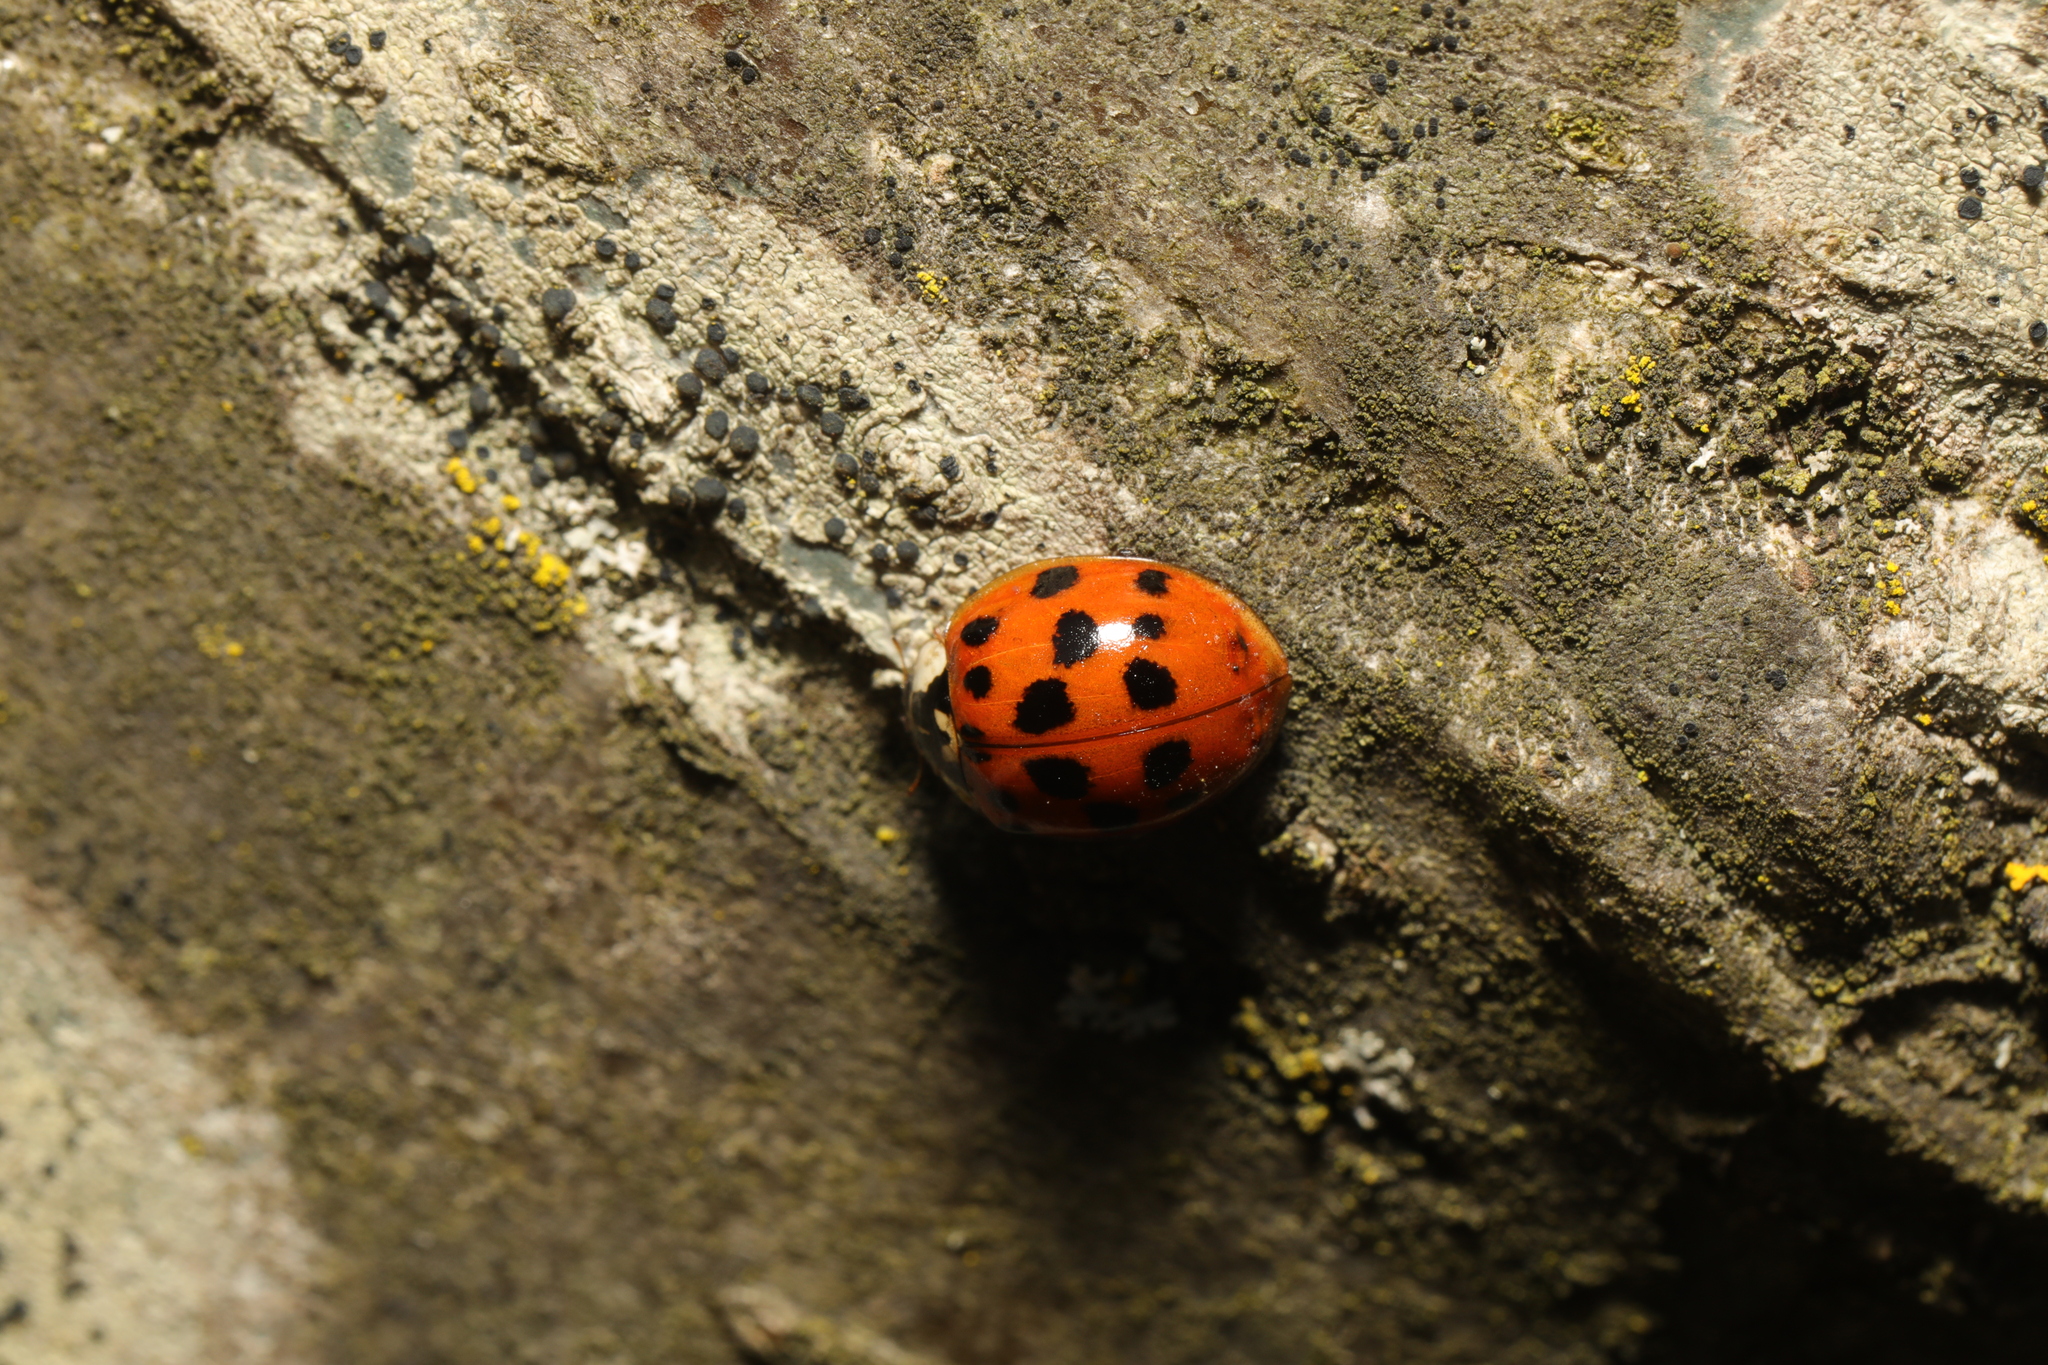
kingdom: Animalia
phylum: Arthropoda
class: Insecta
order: Coleoptera
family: Coccinellidae
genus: Harmonia
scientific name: Harmonia axyridis
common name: Harlequin ladybird
